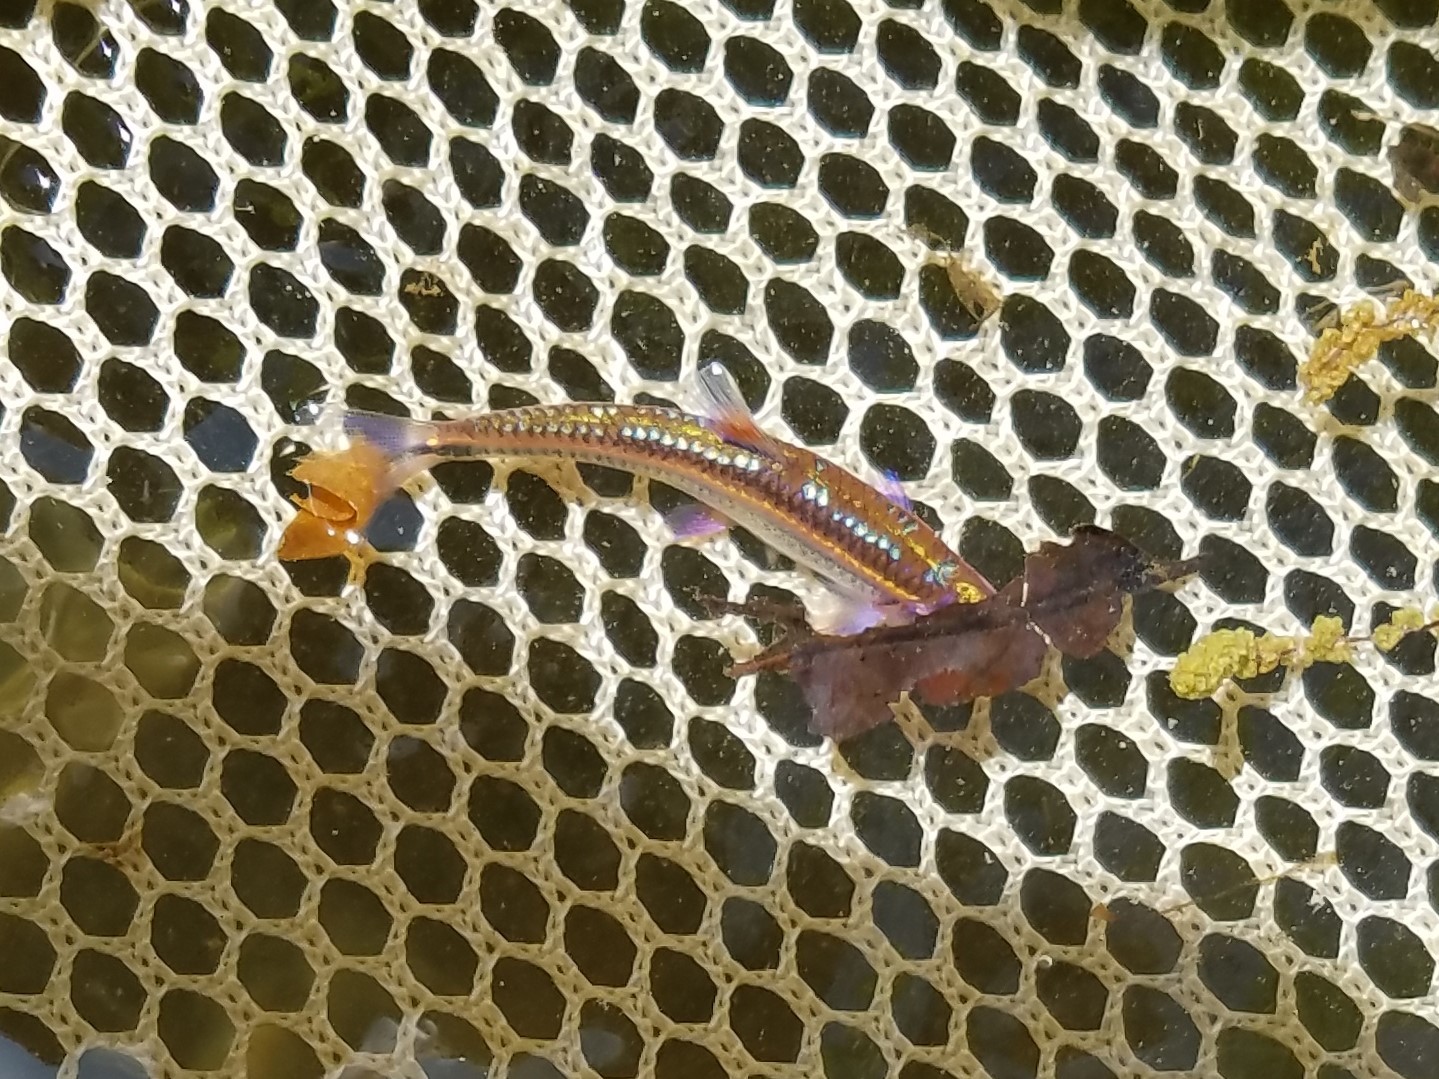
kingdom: Animalia
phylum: Chordata
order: Cypriniformes
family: Cyprinidae
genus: Notropis
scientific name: Notropis
